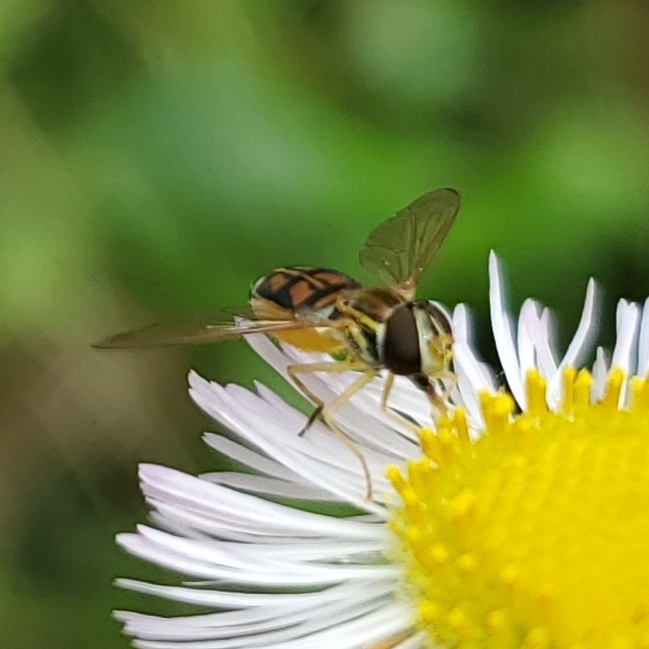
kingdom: Animalia
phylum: Arthropoda
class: Insecta
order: Diptera
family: Syrphidae
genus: Toxomerus
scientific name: Toxomerus marginatus
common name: Syrphid fly
